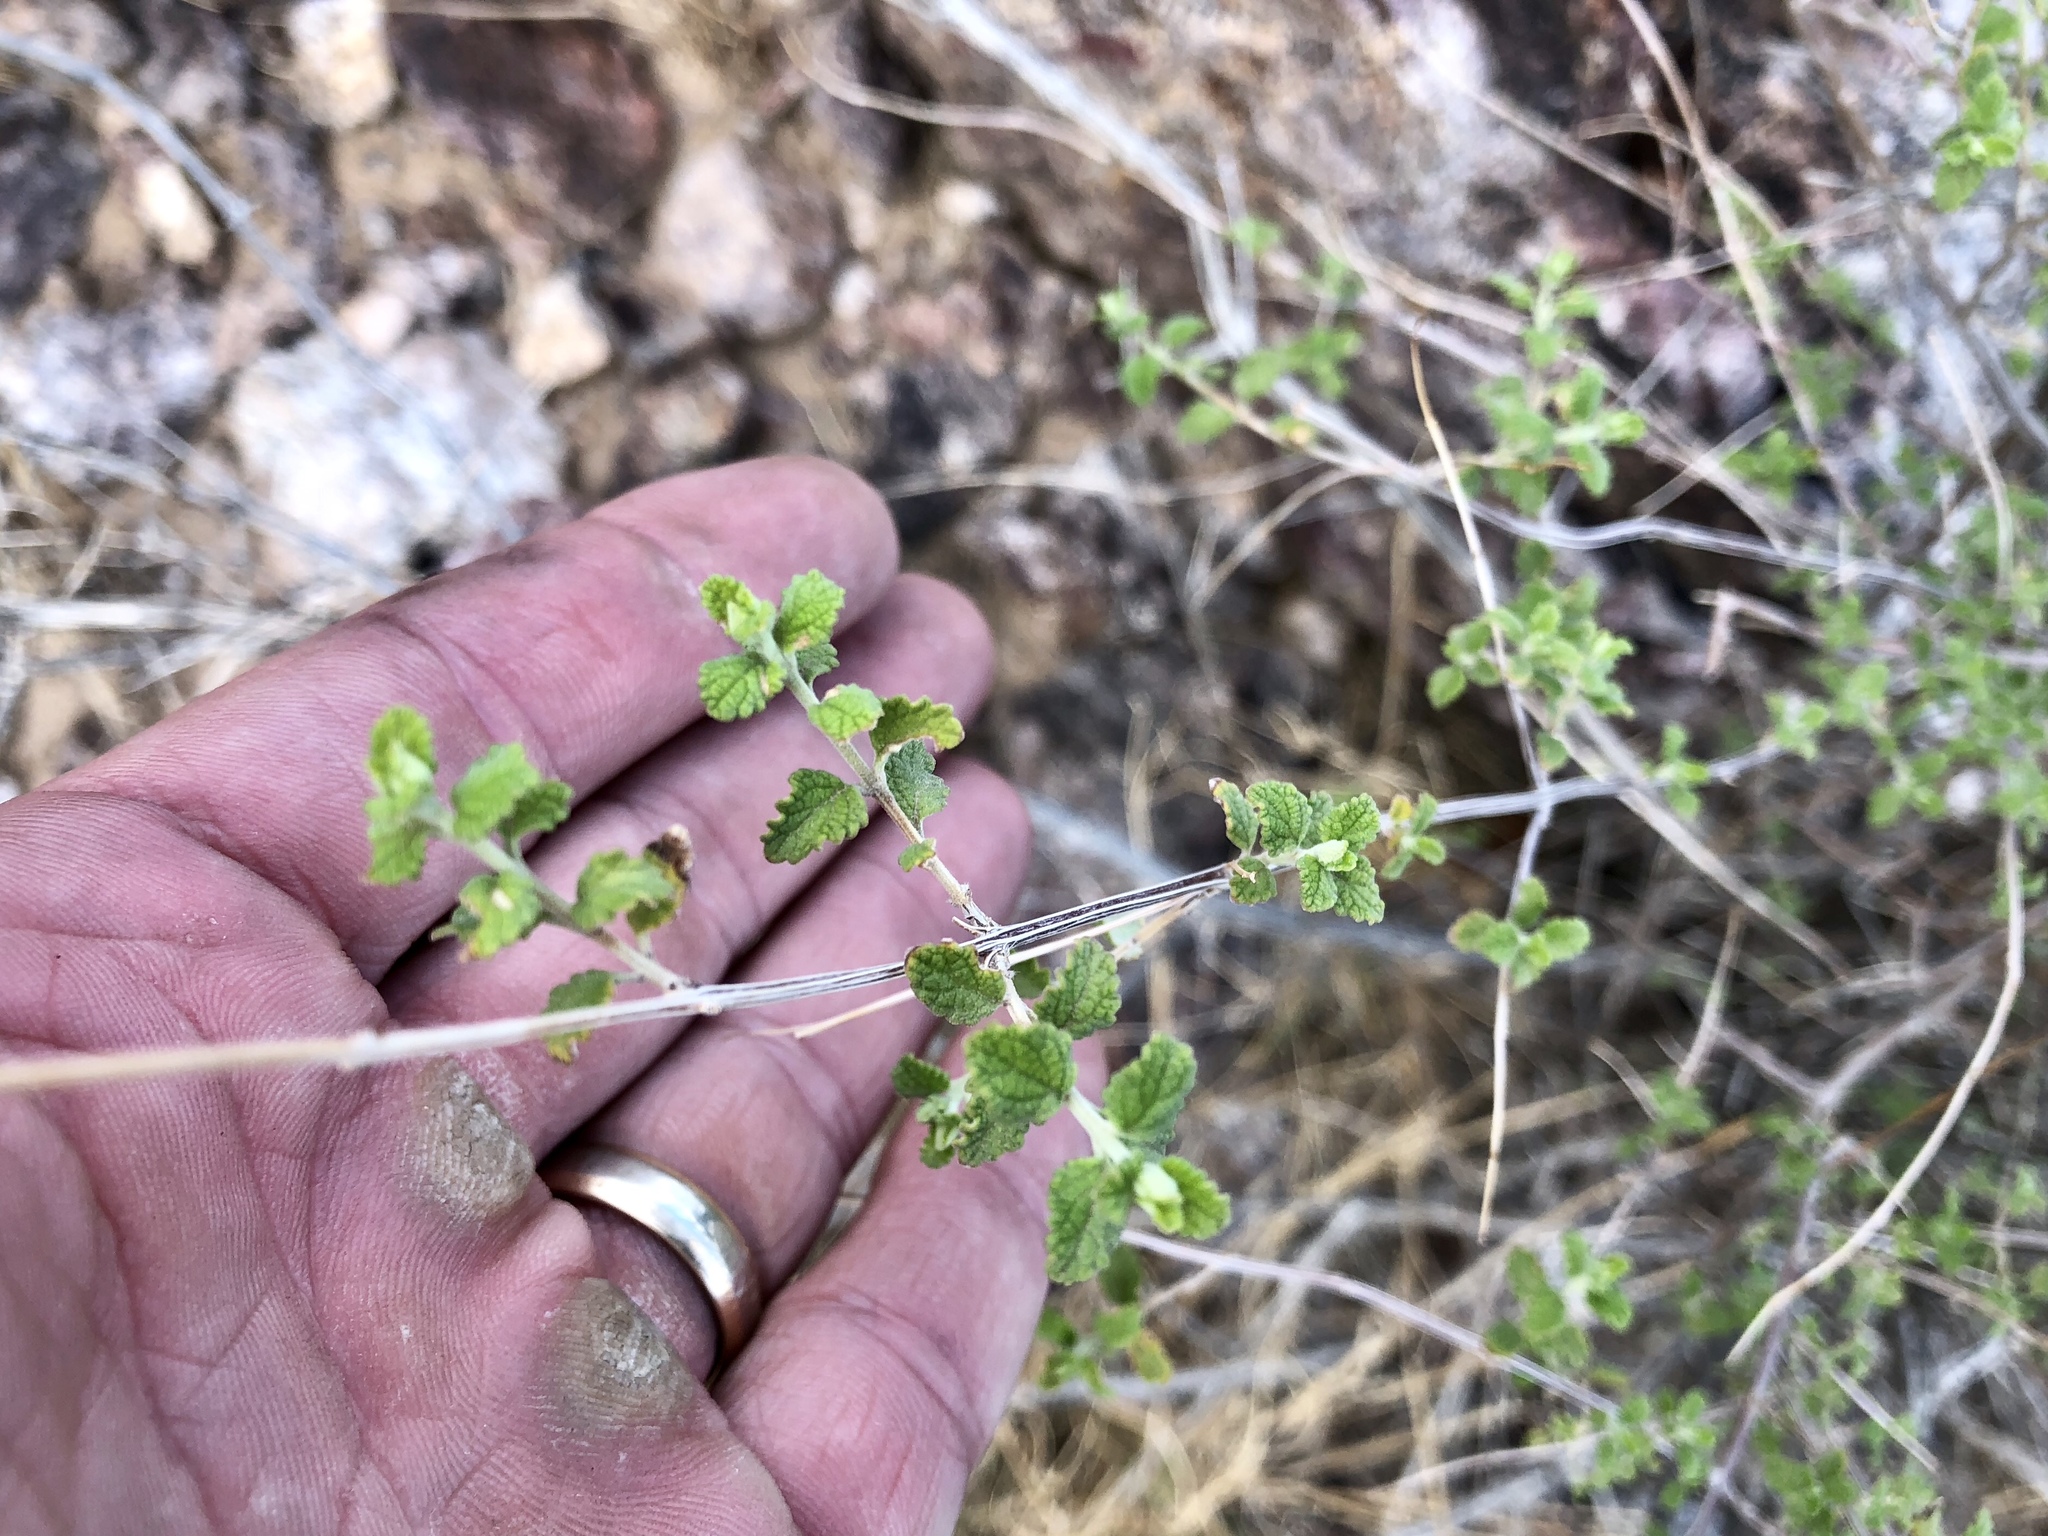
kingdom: Plantae
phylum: Tracheophyta
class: Magnoliopsida
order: Lamiales
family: Verbenaceae
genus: Aloysia
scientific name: Aloysia wrightii
